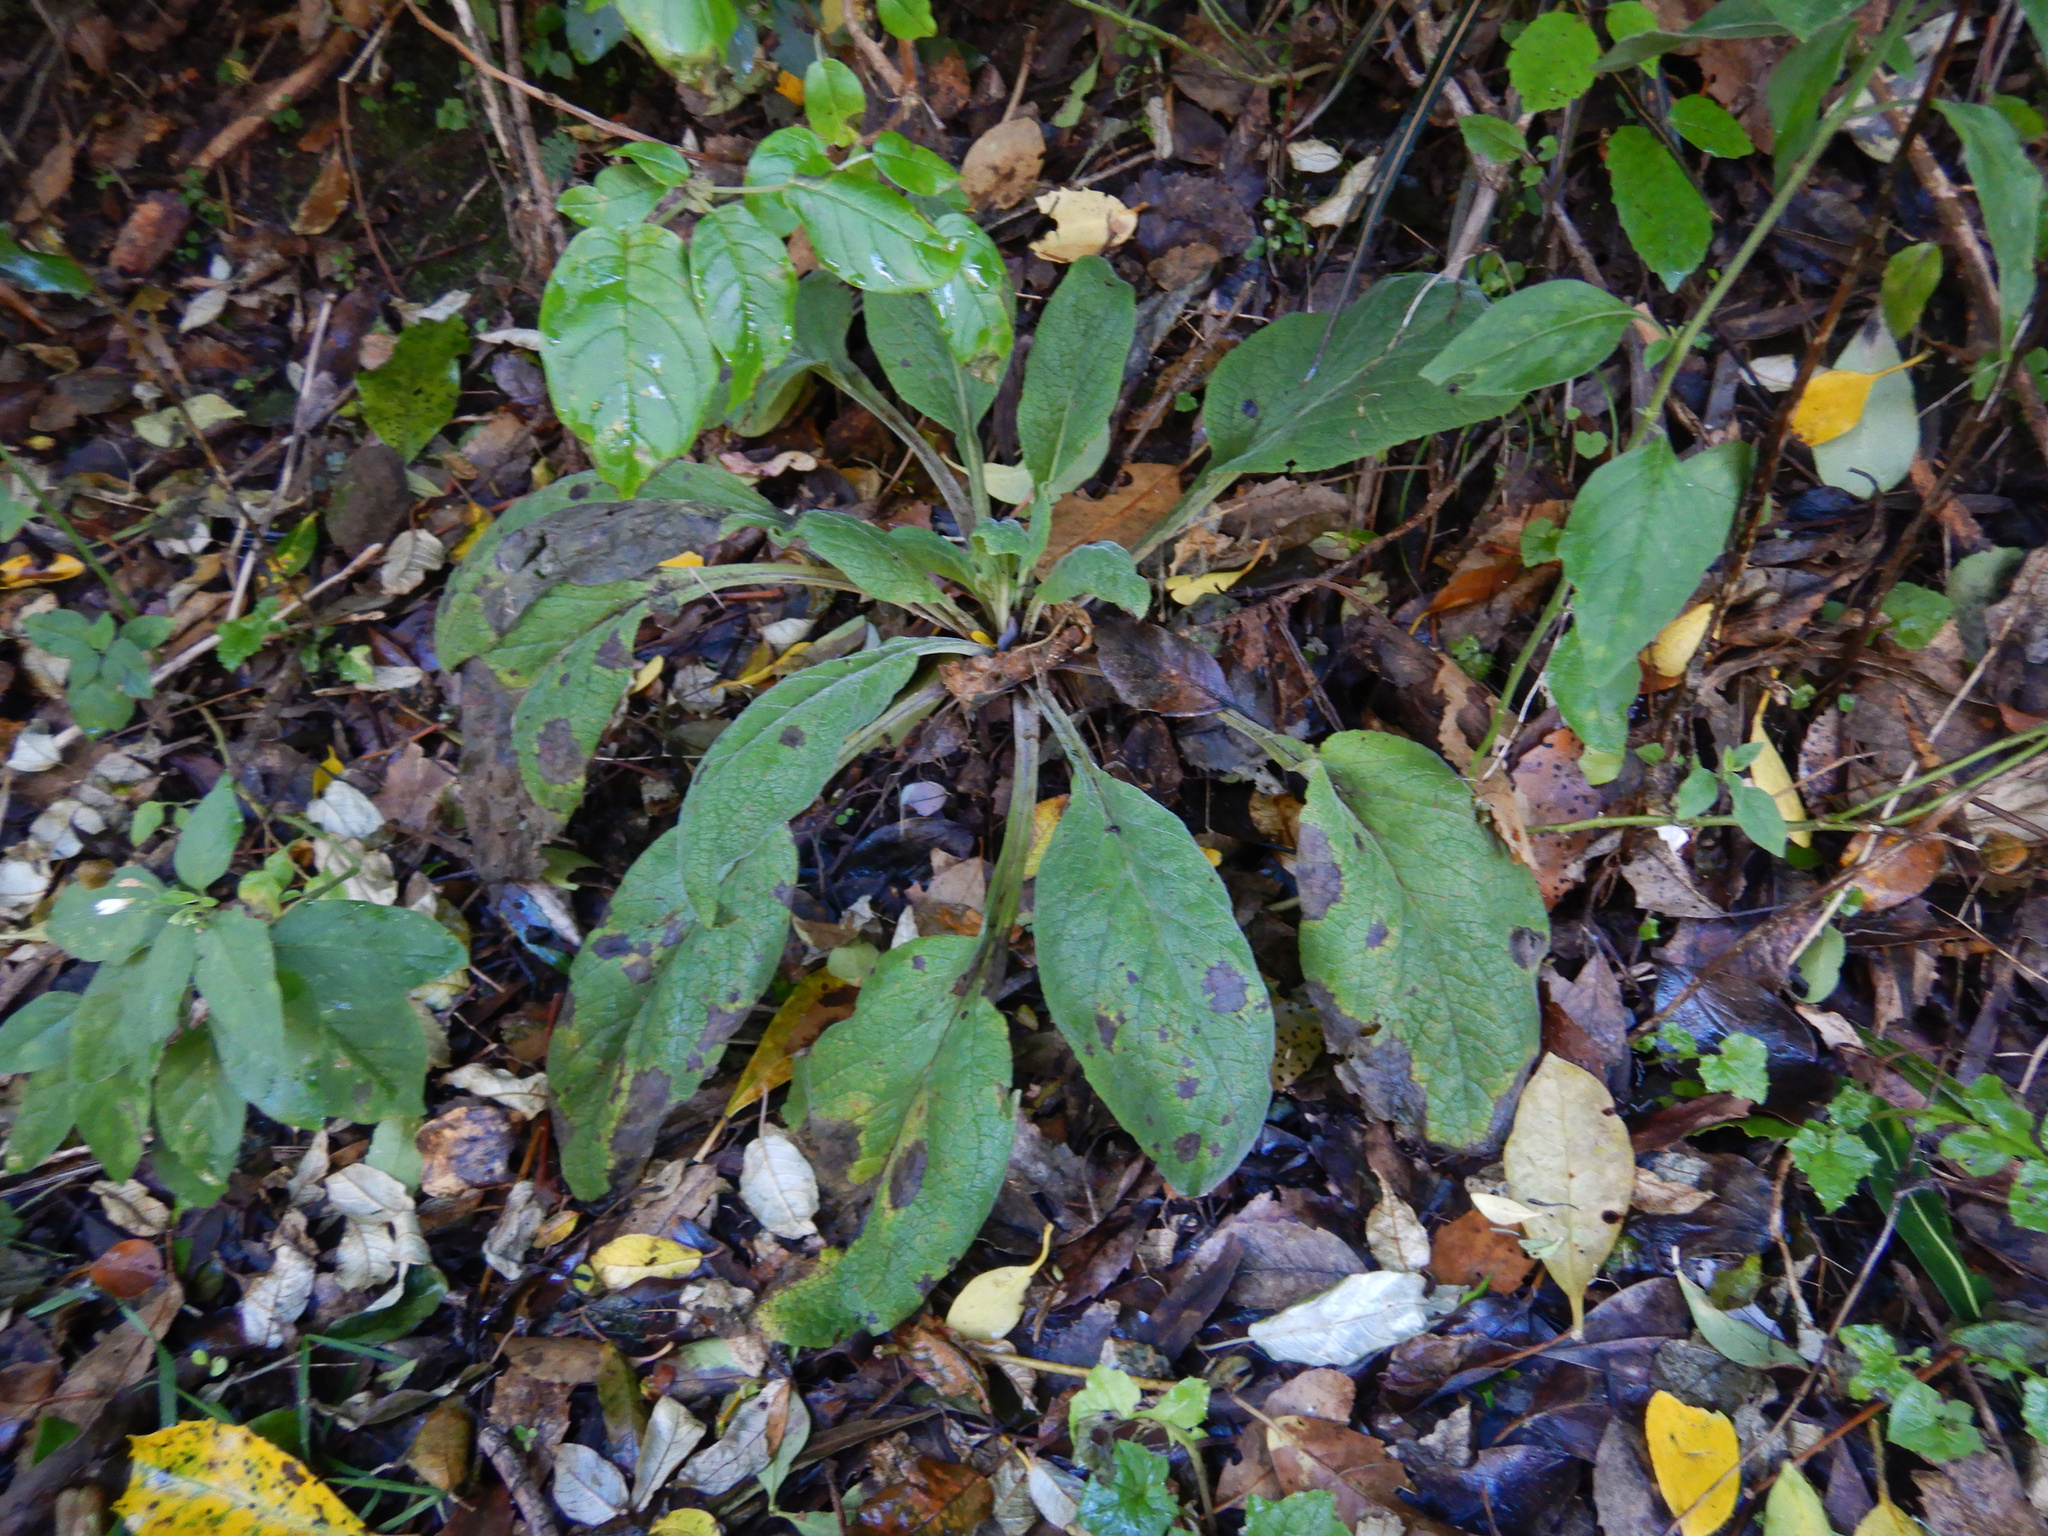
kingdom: Plantae
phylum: Tracheophyta
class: Magnoliopsida
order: Lamiales
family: Plantaginaceae
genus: Digitalis
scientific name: Digitalis purpurea
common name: Foxglove
